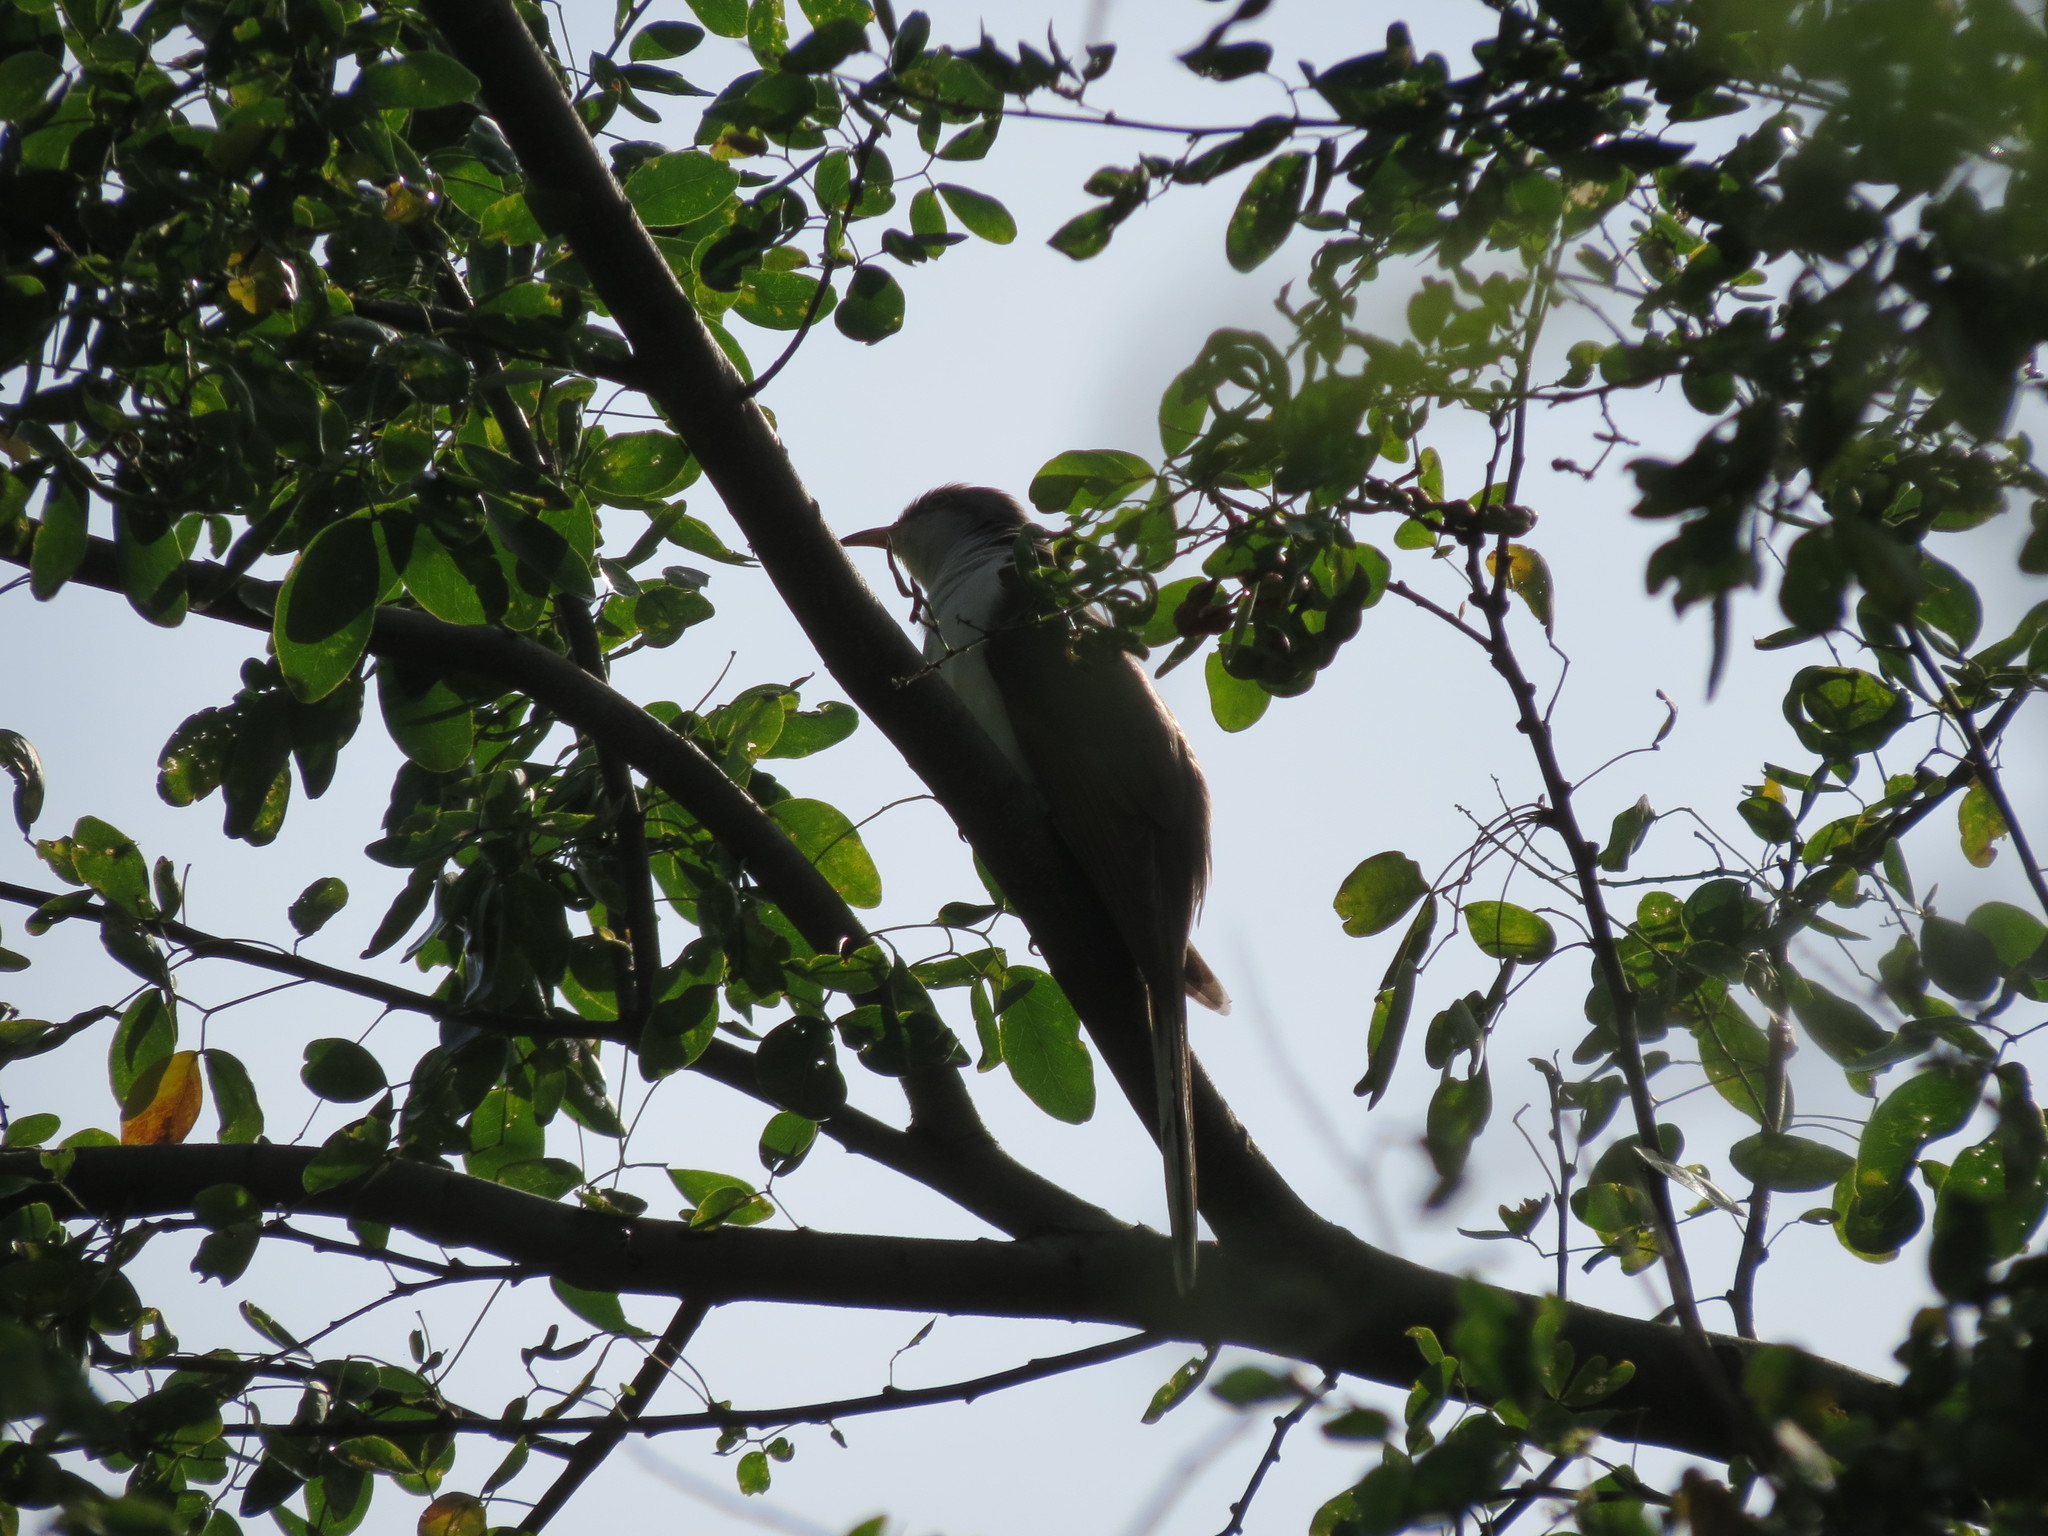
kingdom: Animalia
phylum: Chordata
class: Aves
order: Cuculiformes
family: Cuculidae
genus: Coccyzus
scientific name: Coccyzus americanus
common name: Yellow-billed cuckoo
